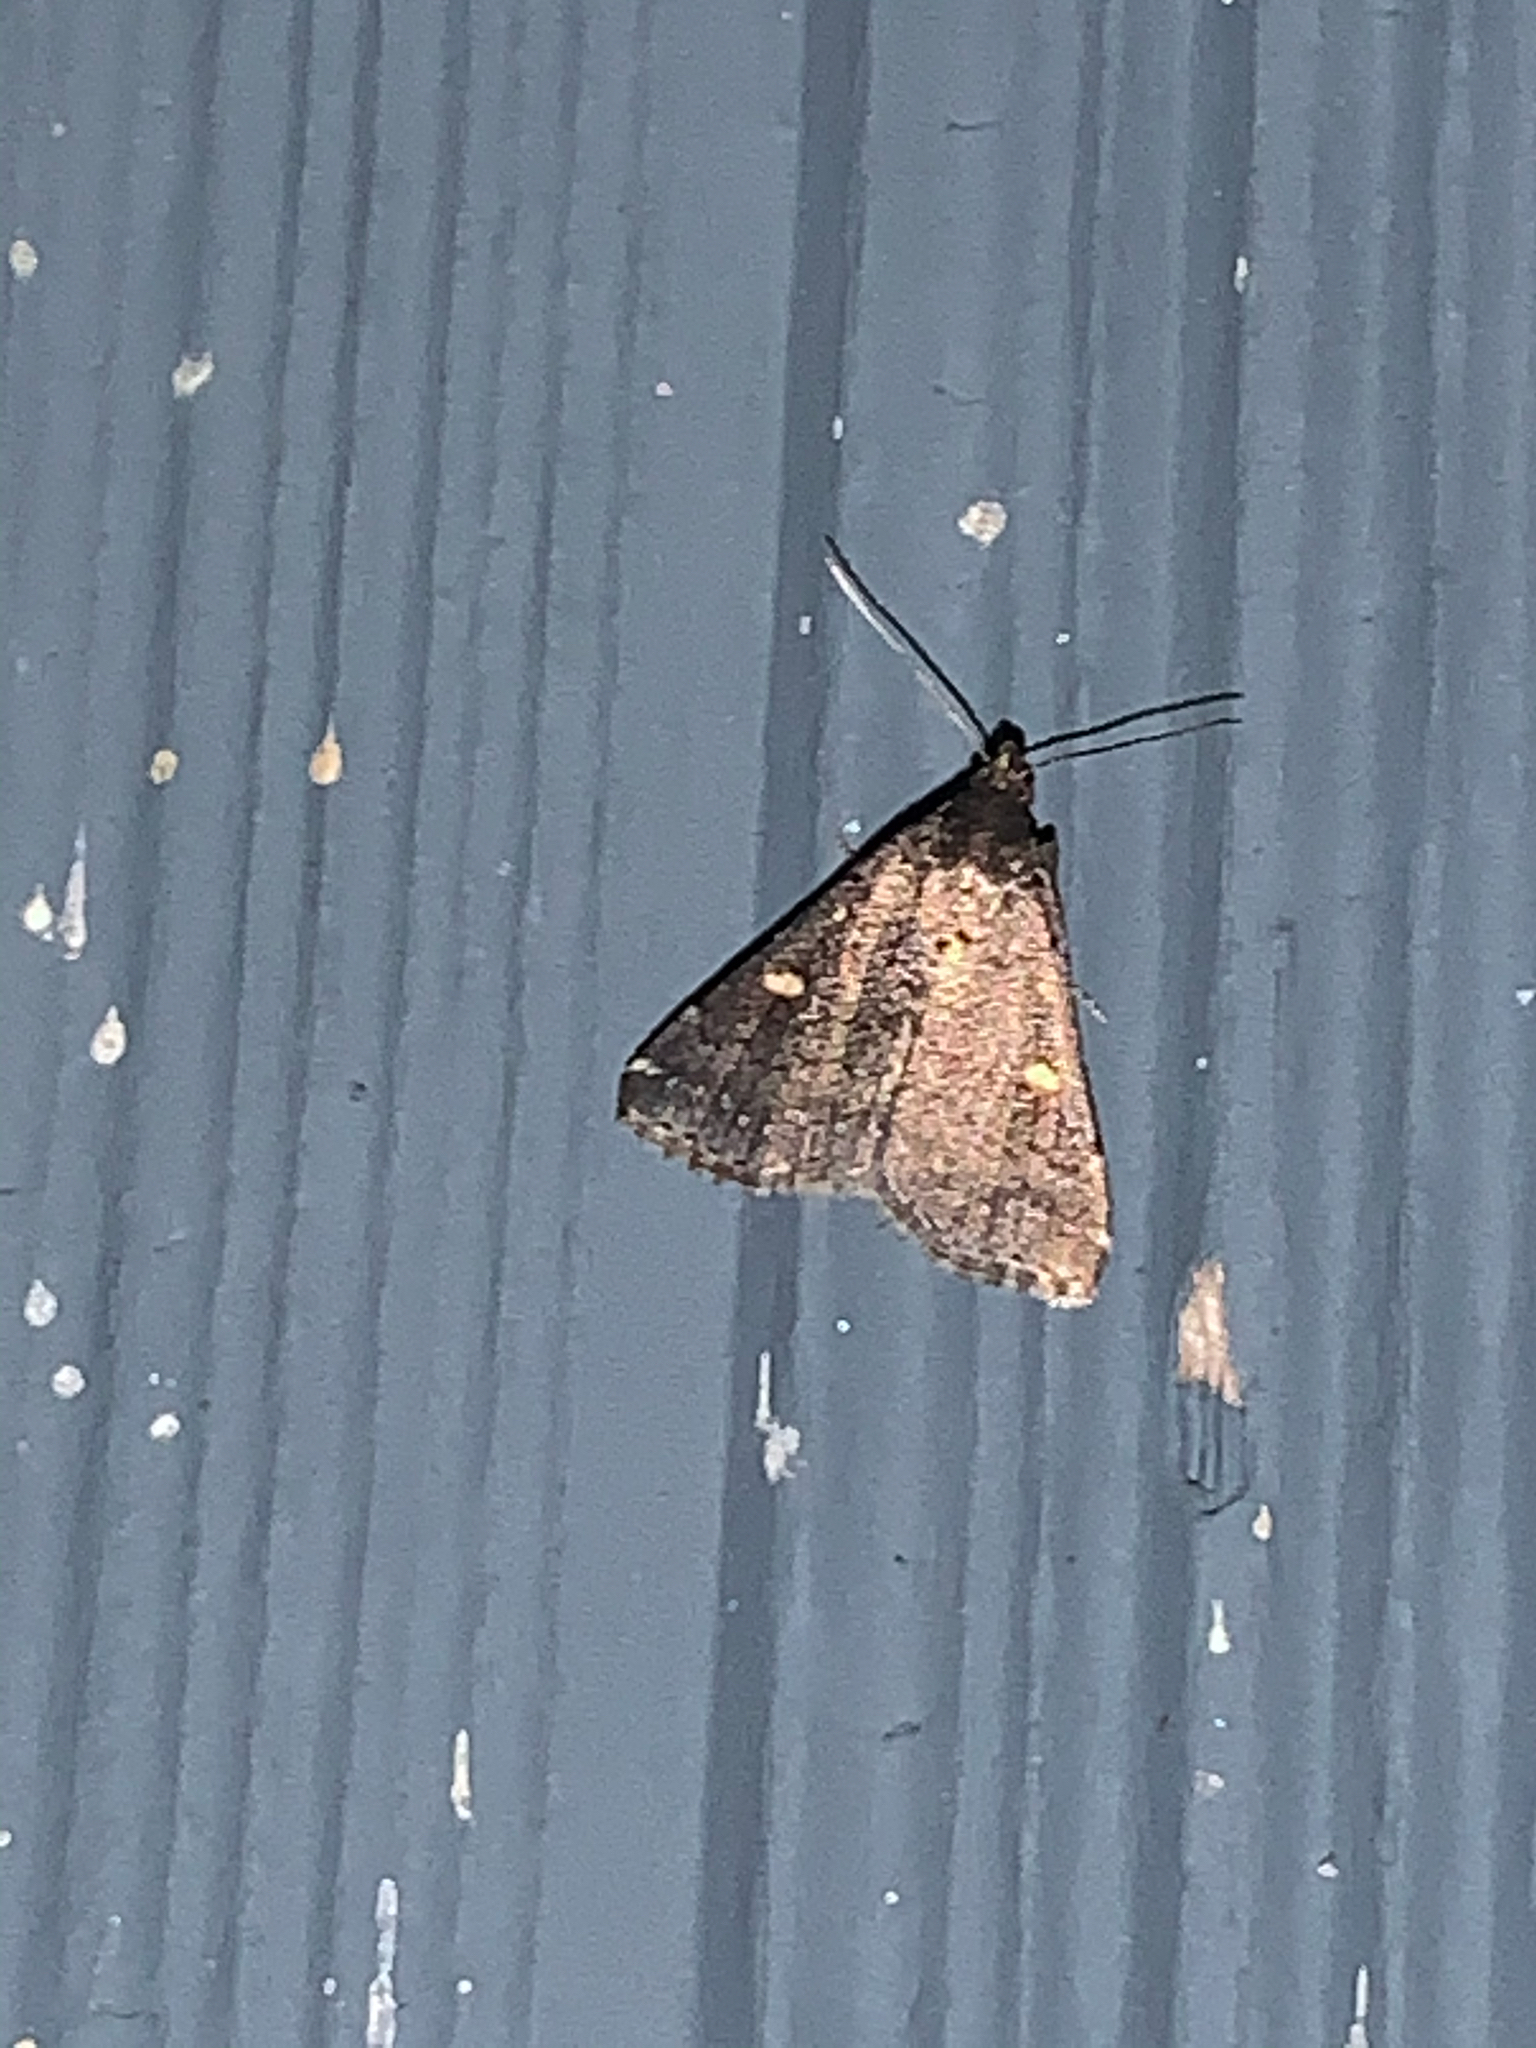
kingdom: Animalia
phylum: Arthropoda
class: Insecta
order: Lepidoptera
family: Erebidae
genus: Tetanolita
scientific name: Tetanolita mynesalis
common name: Smoky tetanolita moth
